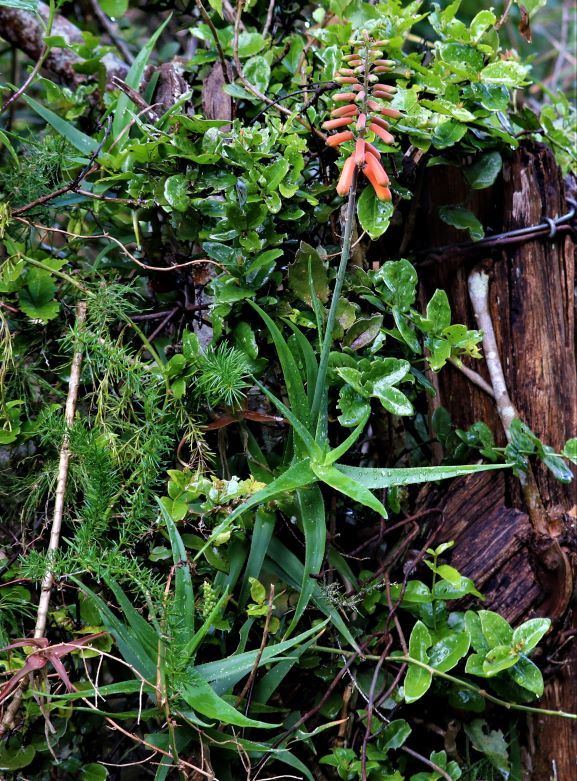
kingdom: Plantae
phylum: Tracheophyta
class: Liliopsida
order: Asparagales
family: Asphodelaceae
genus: Aloiampelos
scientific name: Aloiampelos ciliaris
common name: Climbing aloe
